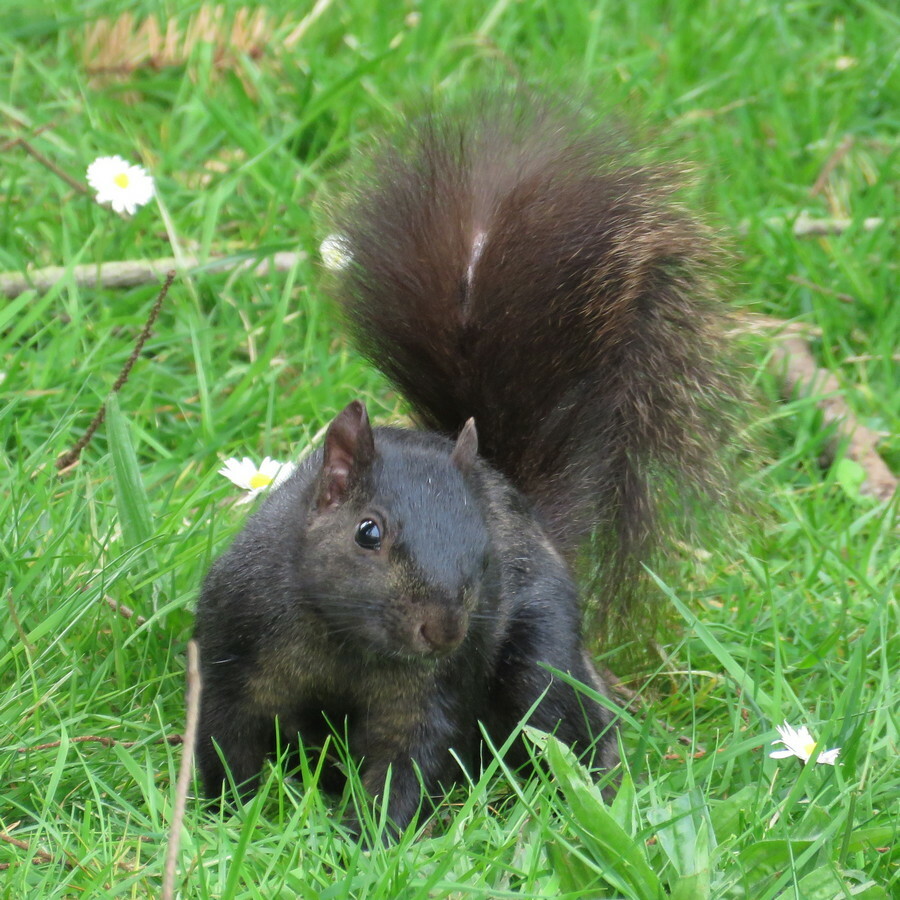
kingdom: Animalia
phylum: Chordata
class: Mammalia
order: Rodentia
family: Sciuridae
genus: Sciurus
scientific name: Sciurus carolinensis
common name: Eastern gray squirrel
